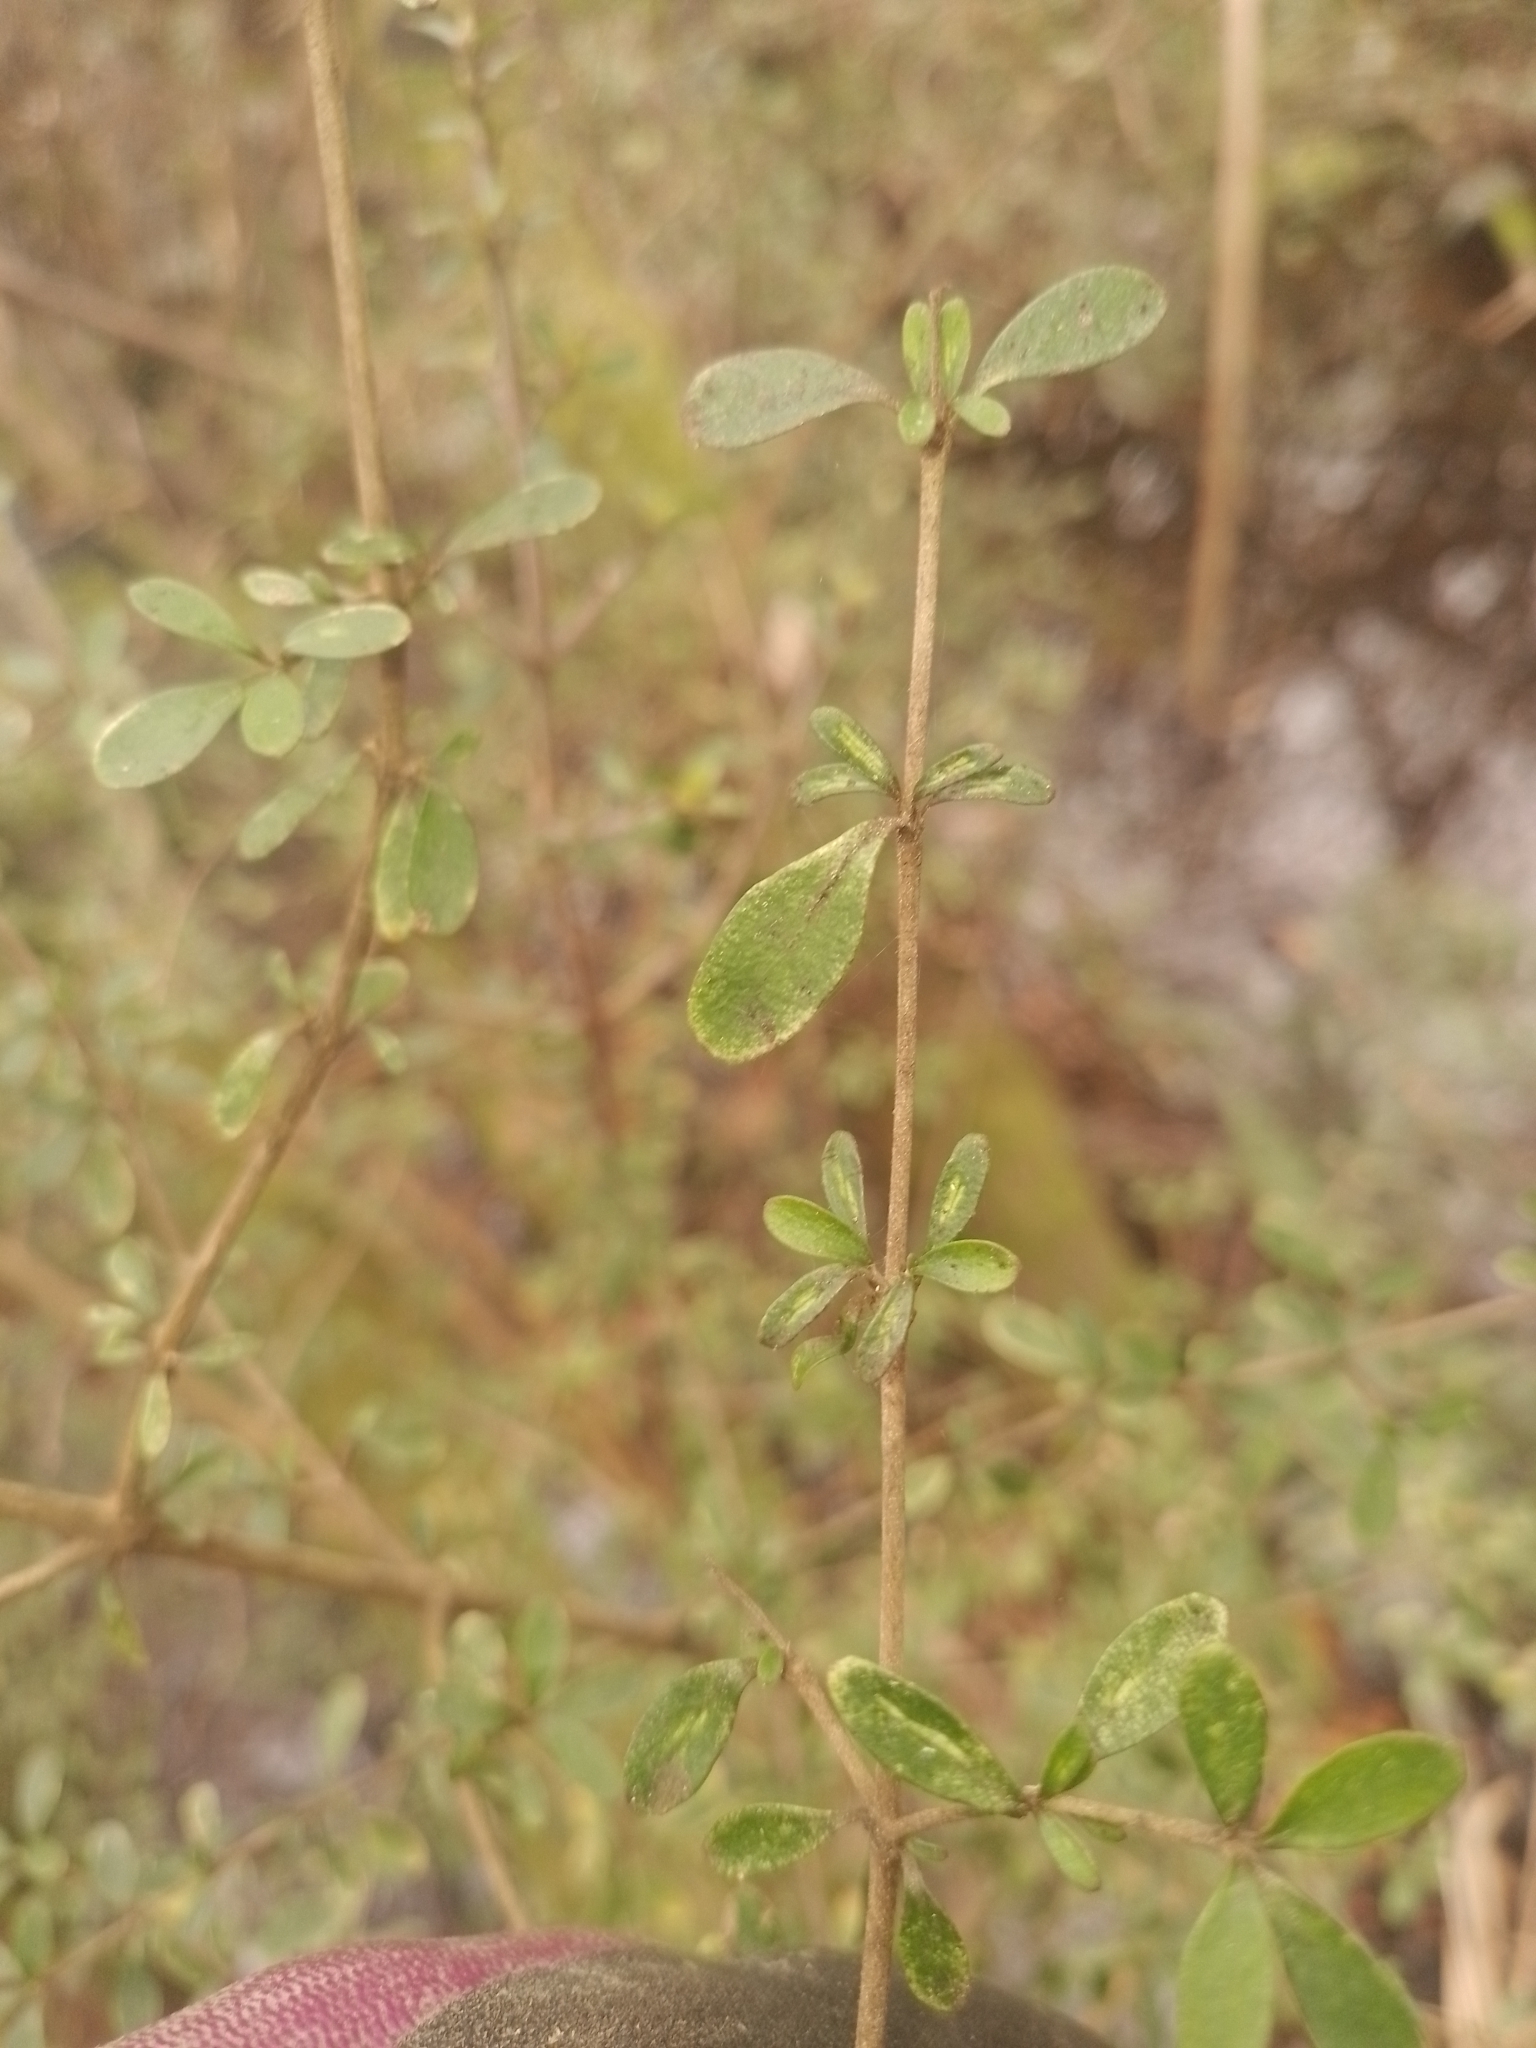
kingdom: Plantae
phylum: Tracheophyta
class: Magnoliopsida
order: Gentianales
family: Rubiaceae
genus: Coprosma
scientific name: Coprosma dumosa
